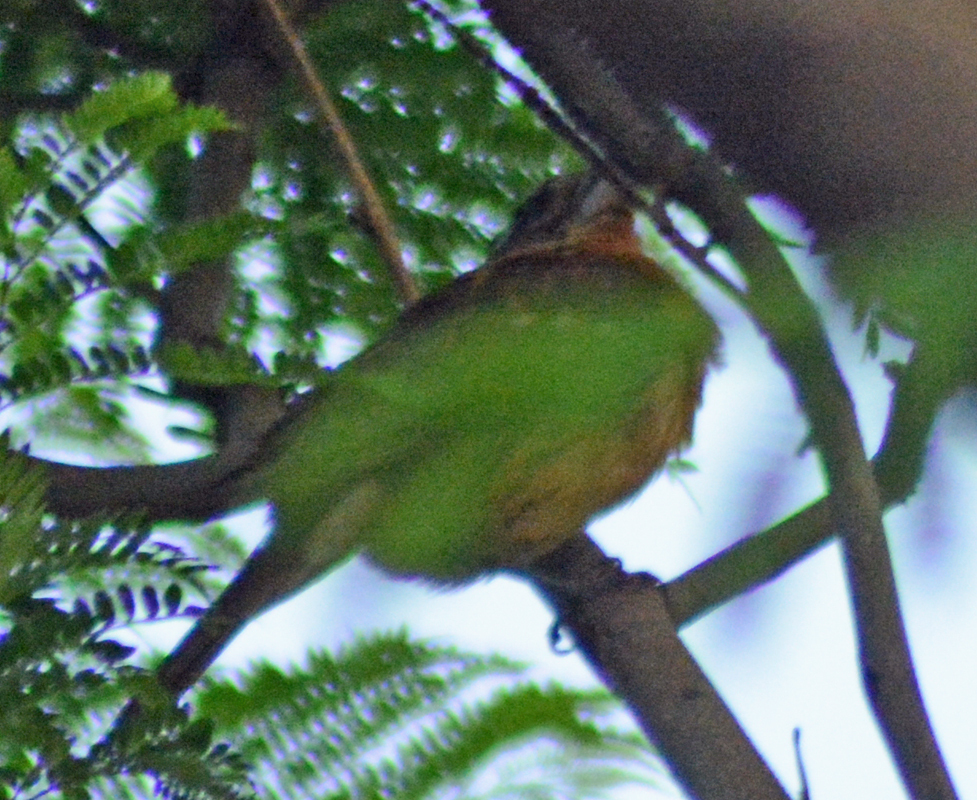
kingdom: Animalia
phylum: Chordata
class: Aves
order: Passeriformes
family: Cardinalidae
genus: Pheucticus
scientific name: Pheucticus melanocephalus
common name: Black-headed grosbeak
